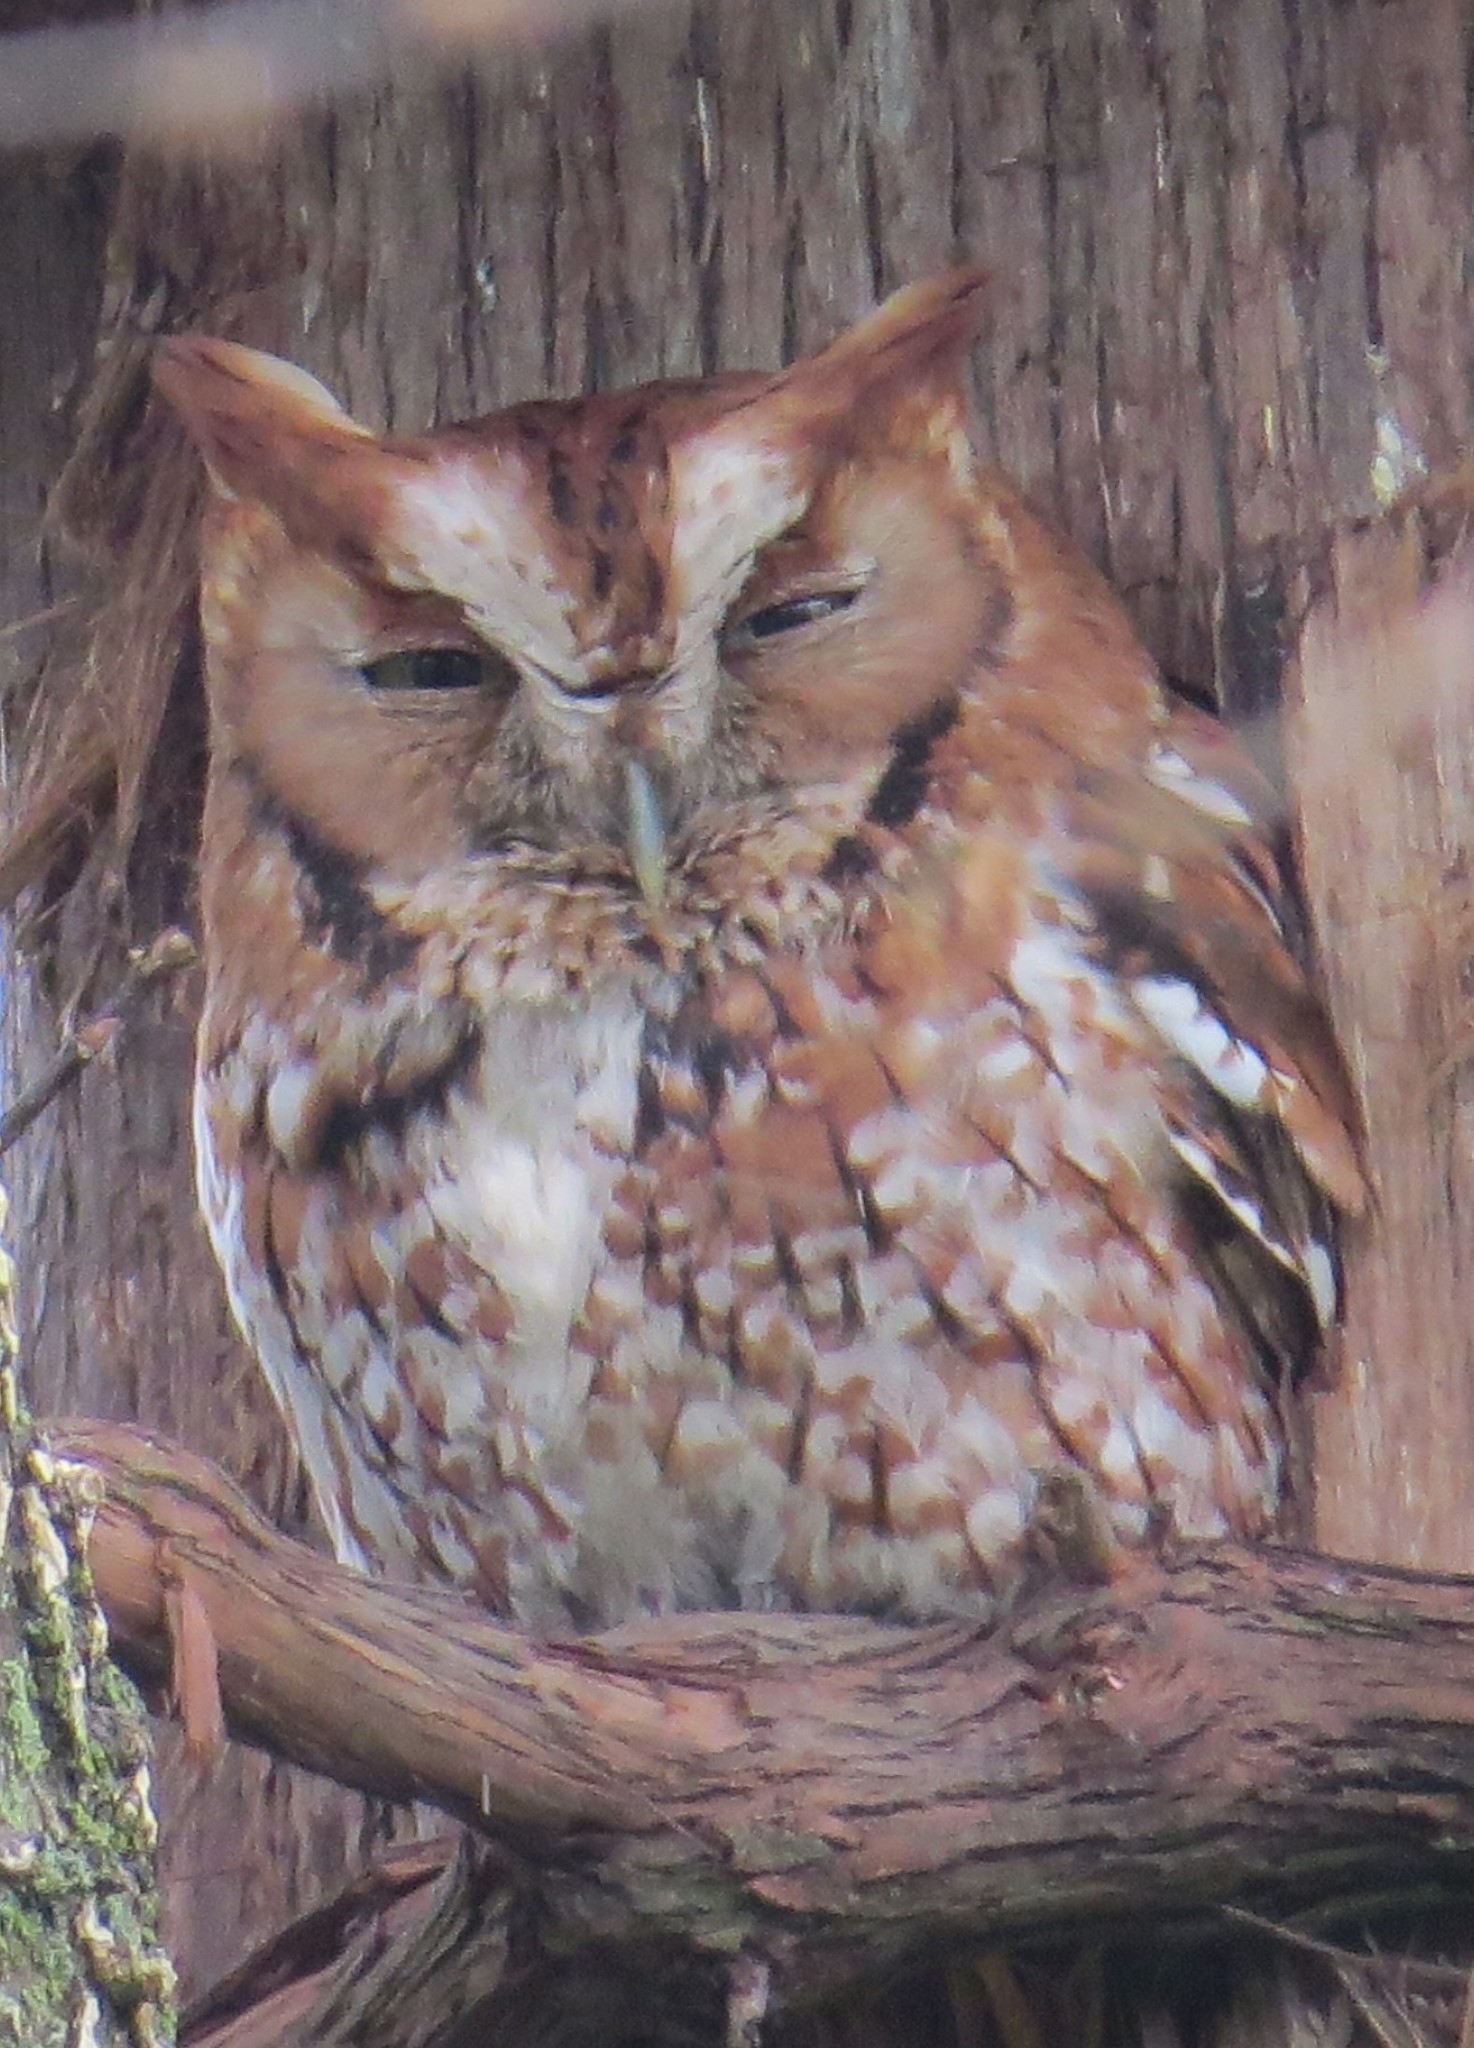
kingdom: Animalia
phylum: Chordata
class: Aves
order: Strigiformes
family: Strigidae
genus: Megascops
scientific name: Megascops asio
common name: Eastern screech-owl
